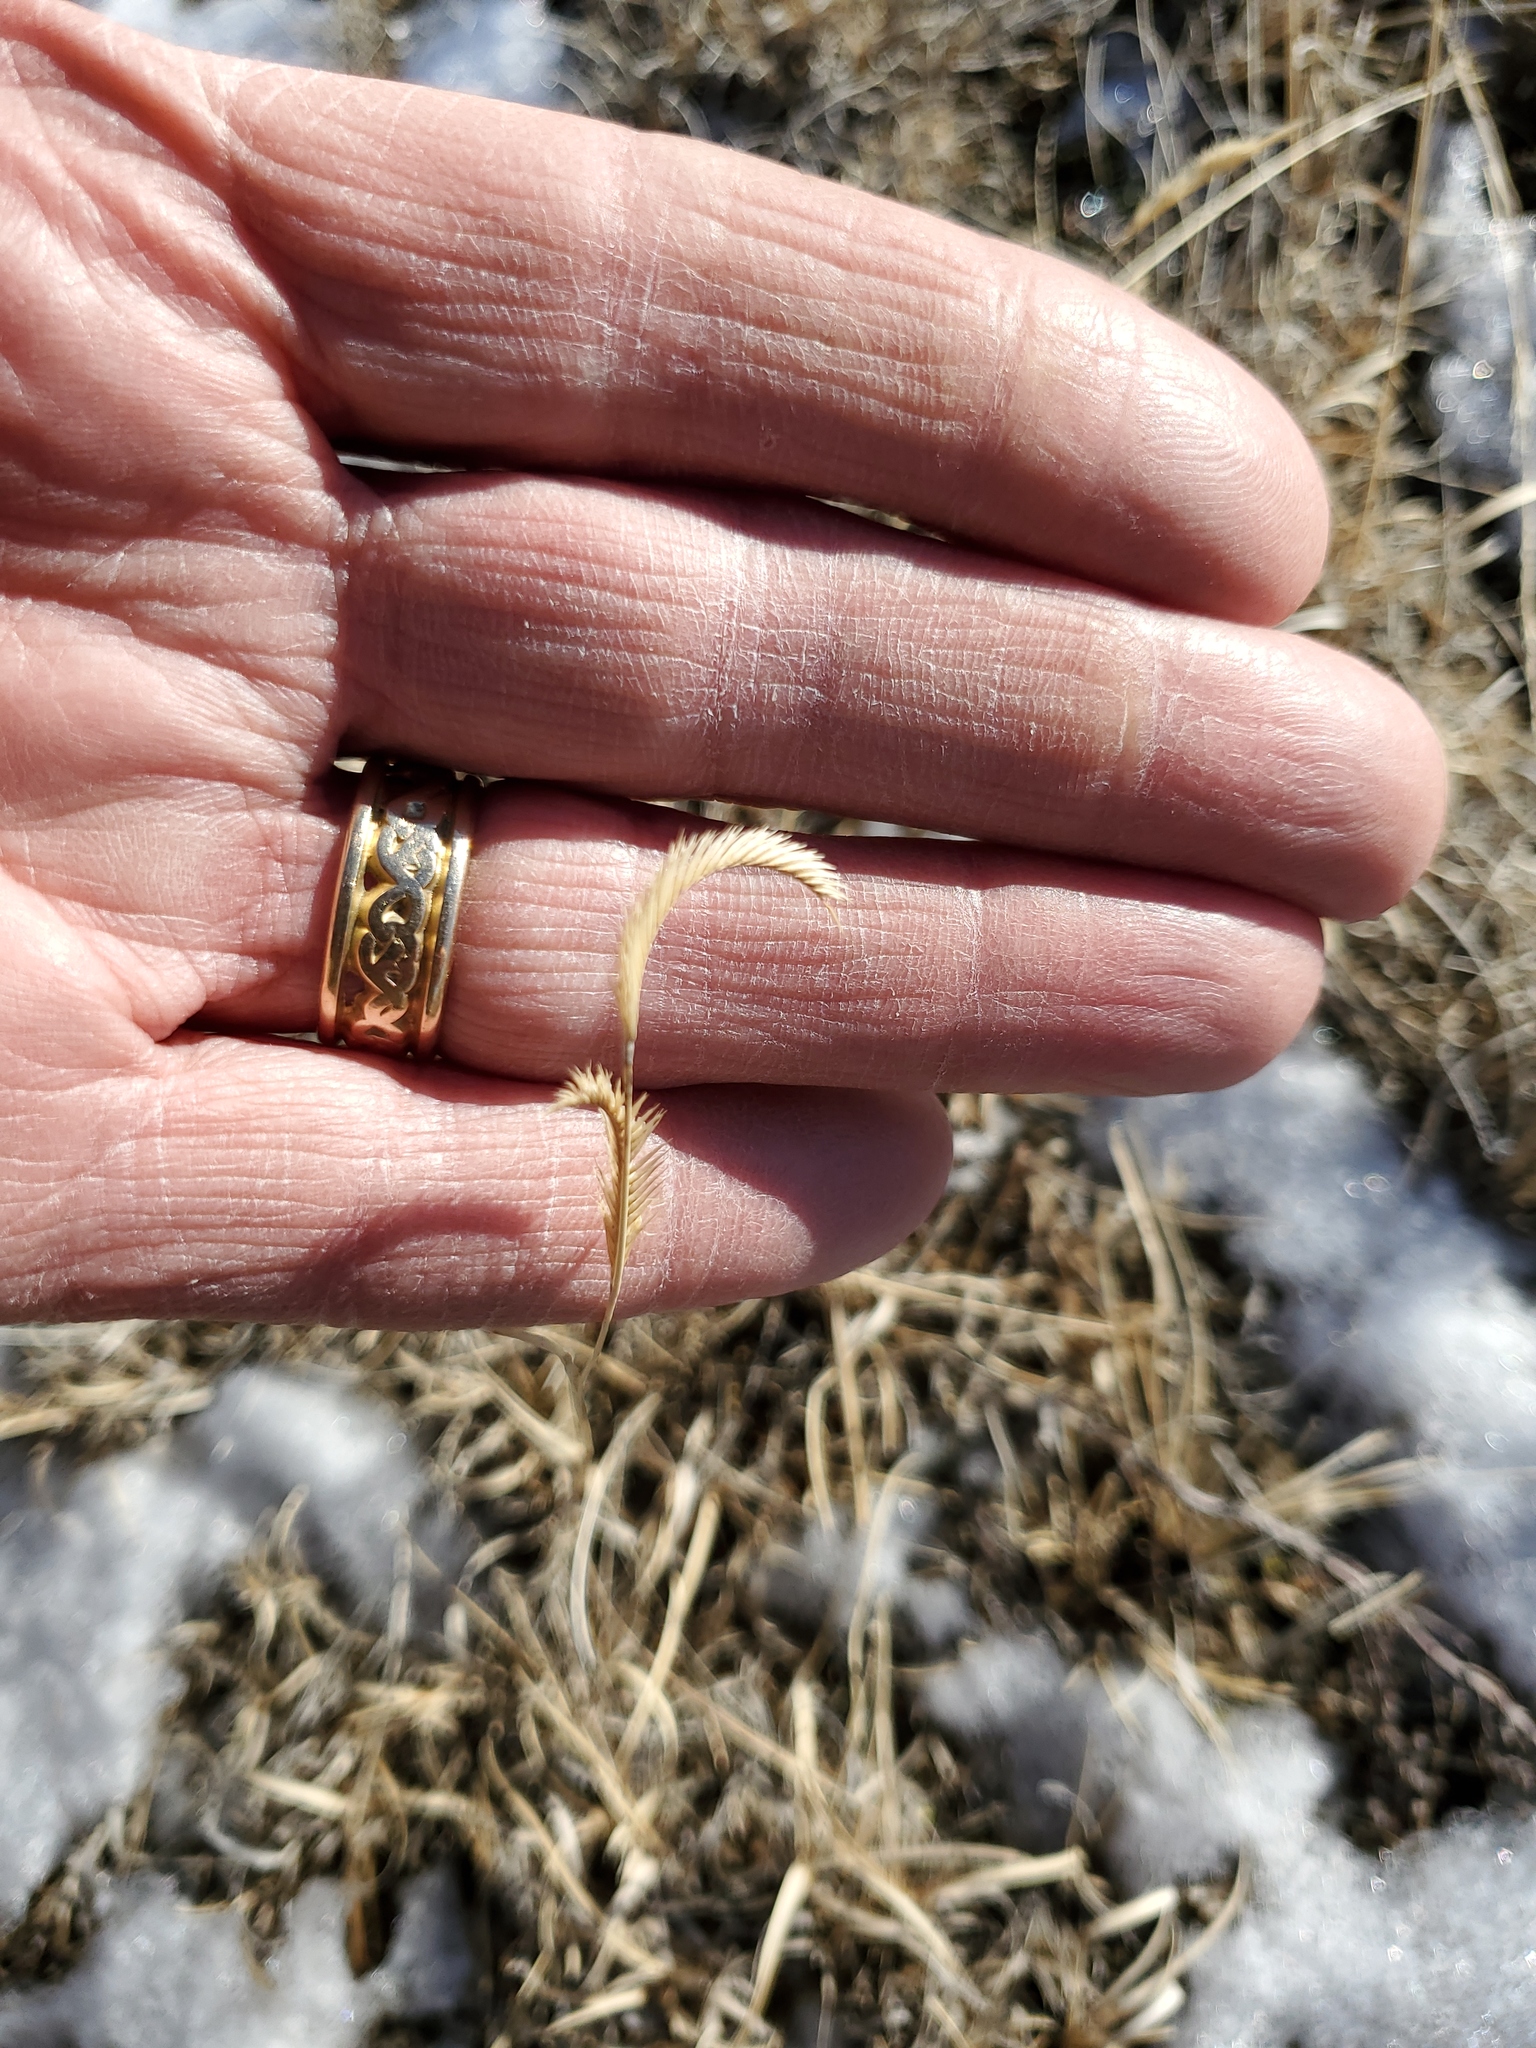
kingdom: Plantae
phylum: Tracheophyta
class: Liliopsida
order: Poales
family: Poaceae
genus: Bouteloua
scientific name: Bouteloua gracilis
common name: Blue grama
